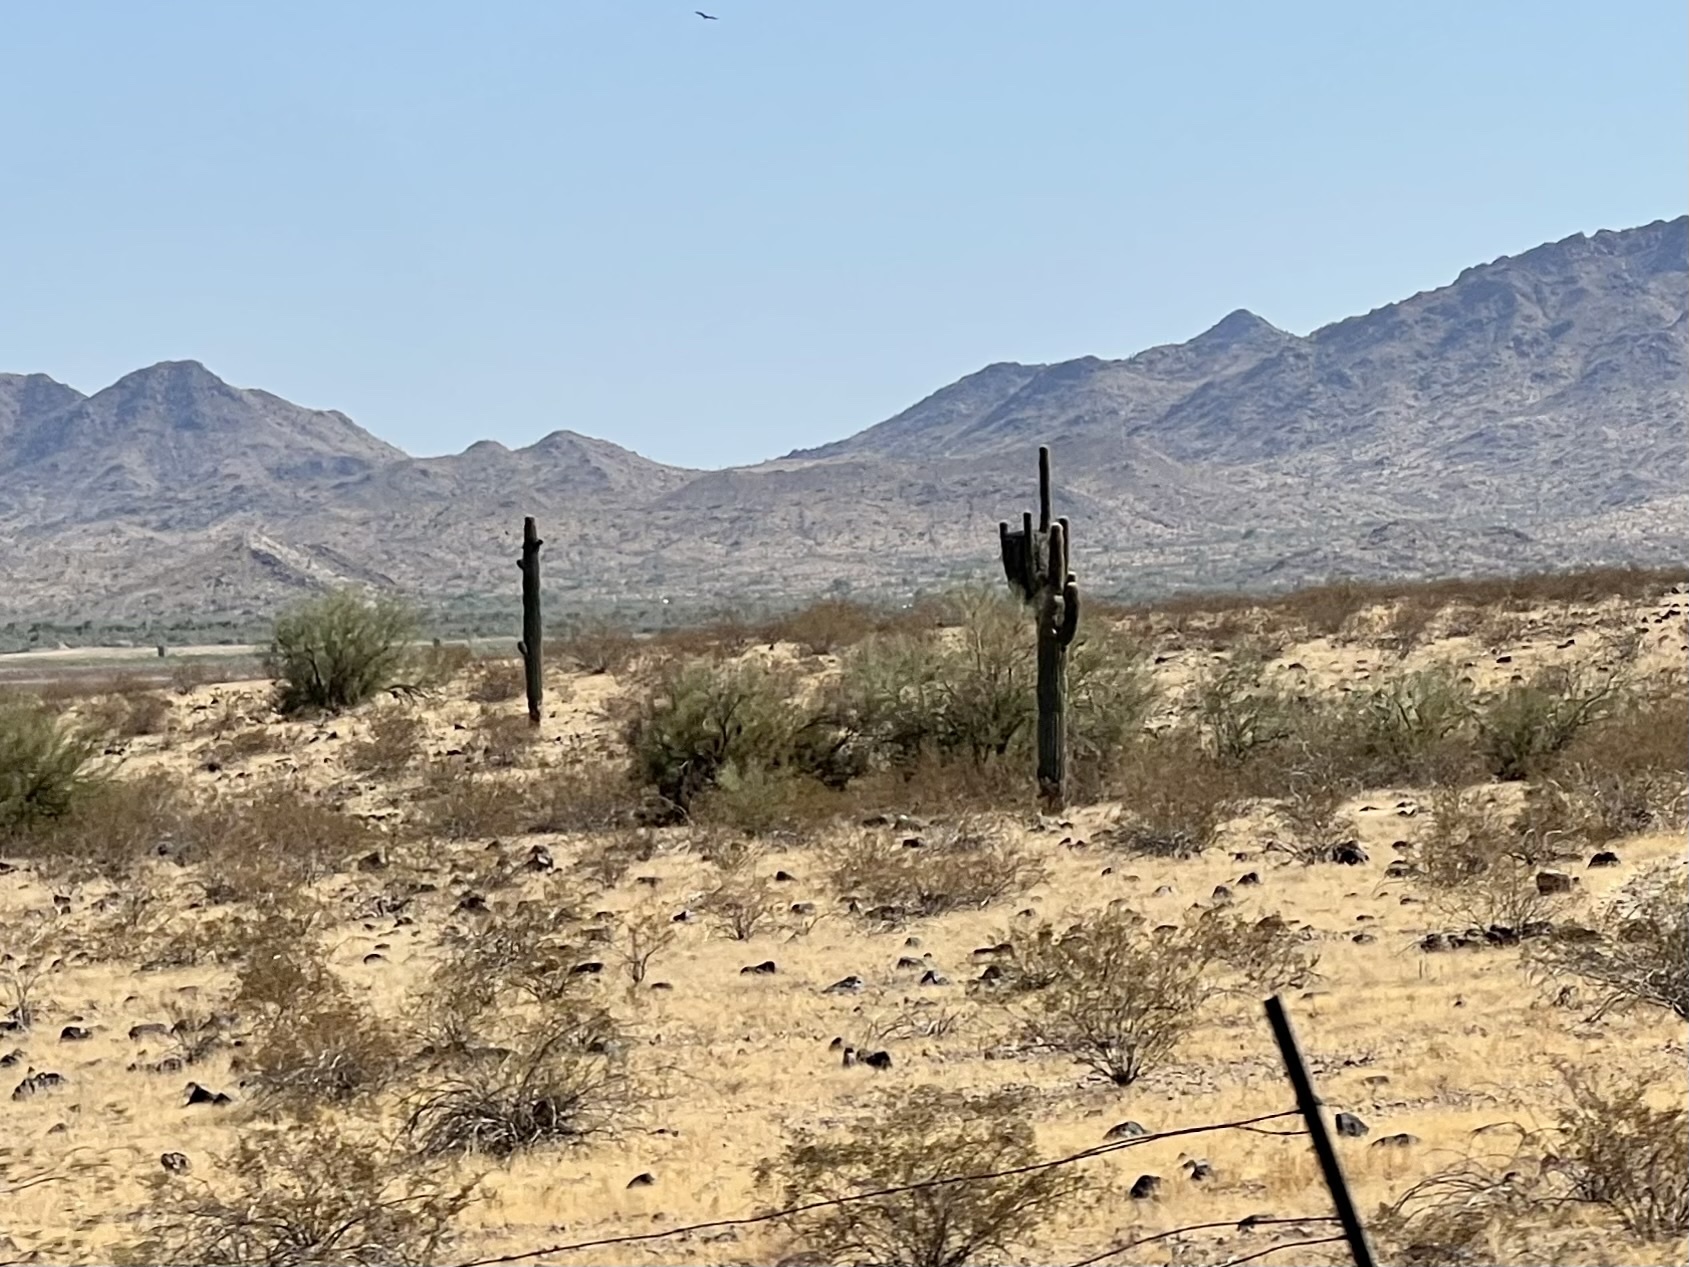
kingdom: Plantae
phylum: Tracheophyta
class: Magnoliopsida
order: Caryophyllales
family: Cactaceae
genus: Carnegiea
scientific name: Carnegiea gigantea
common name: Saguaro
